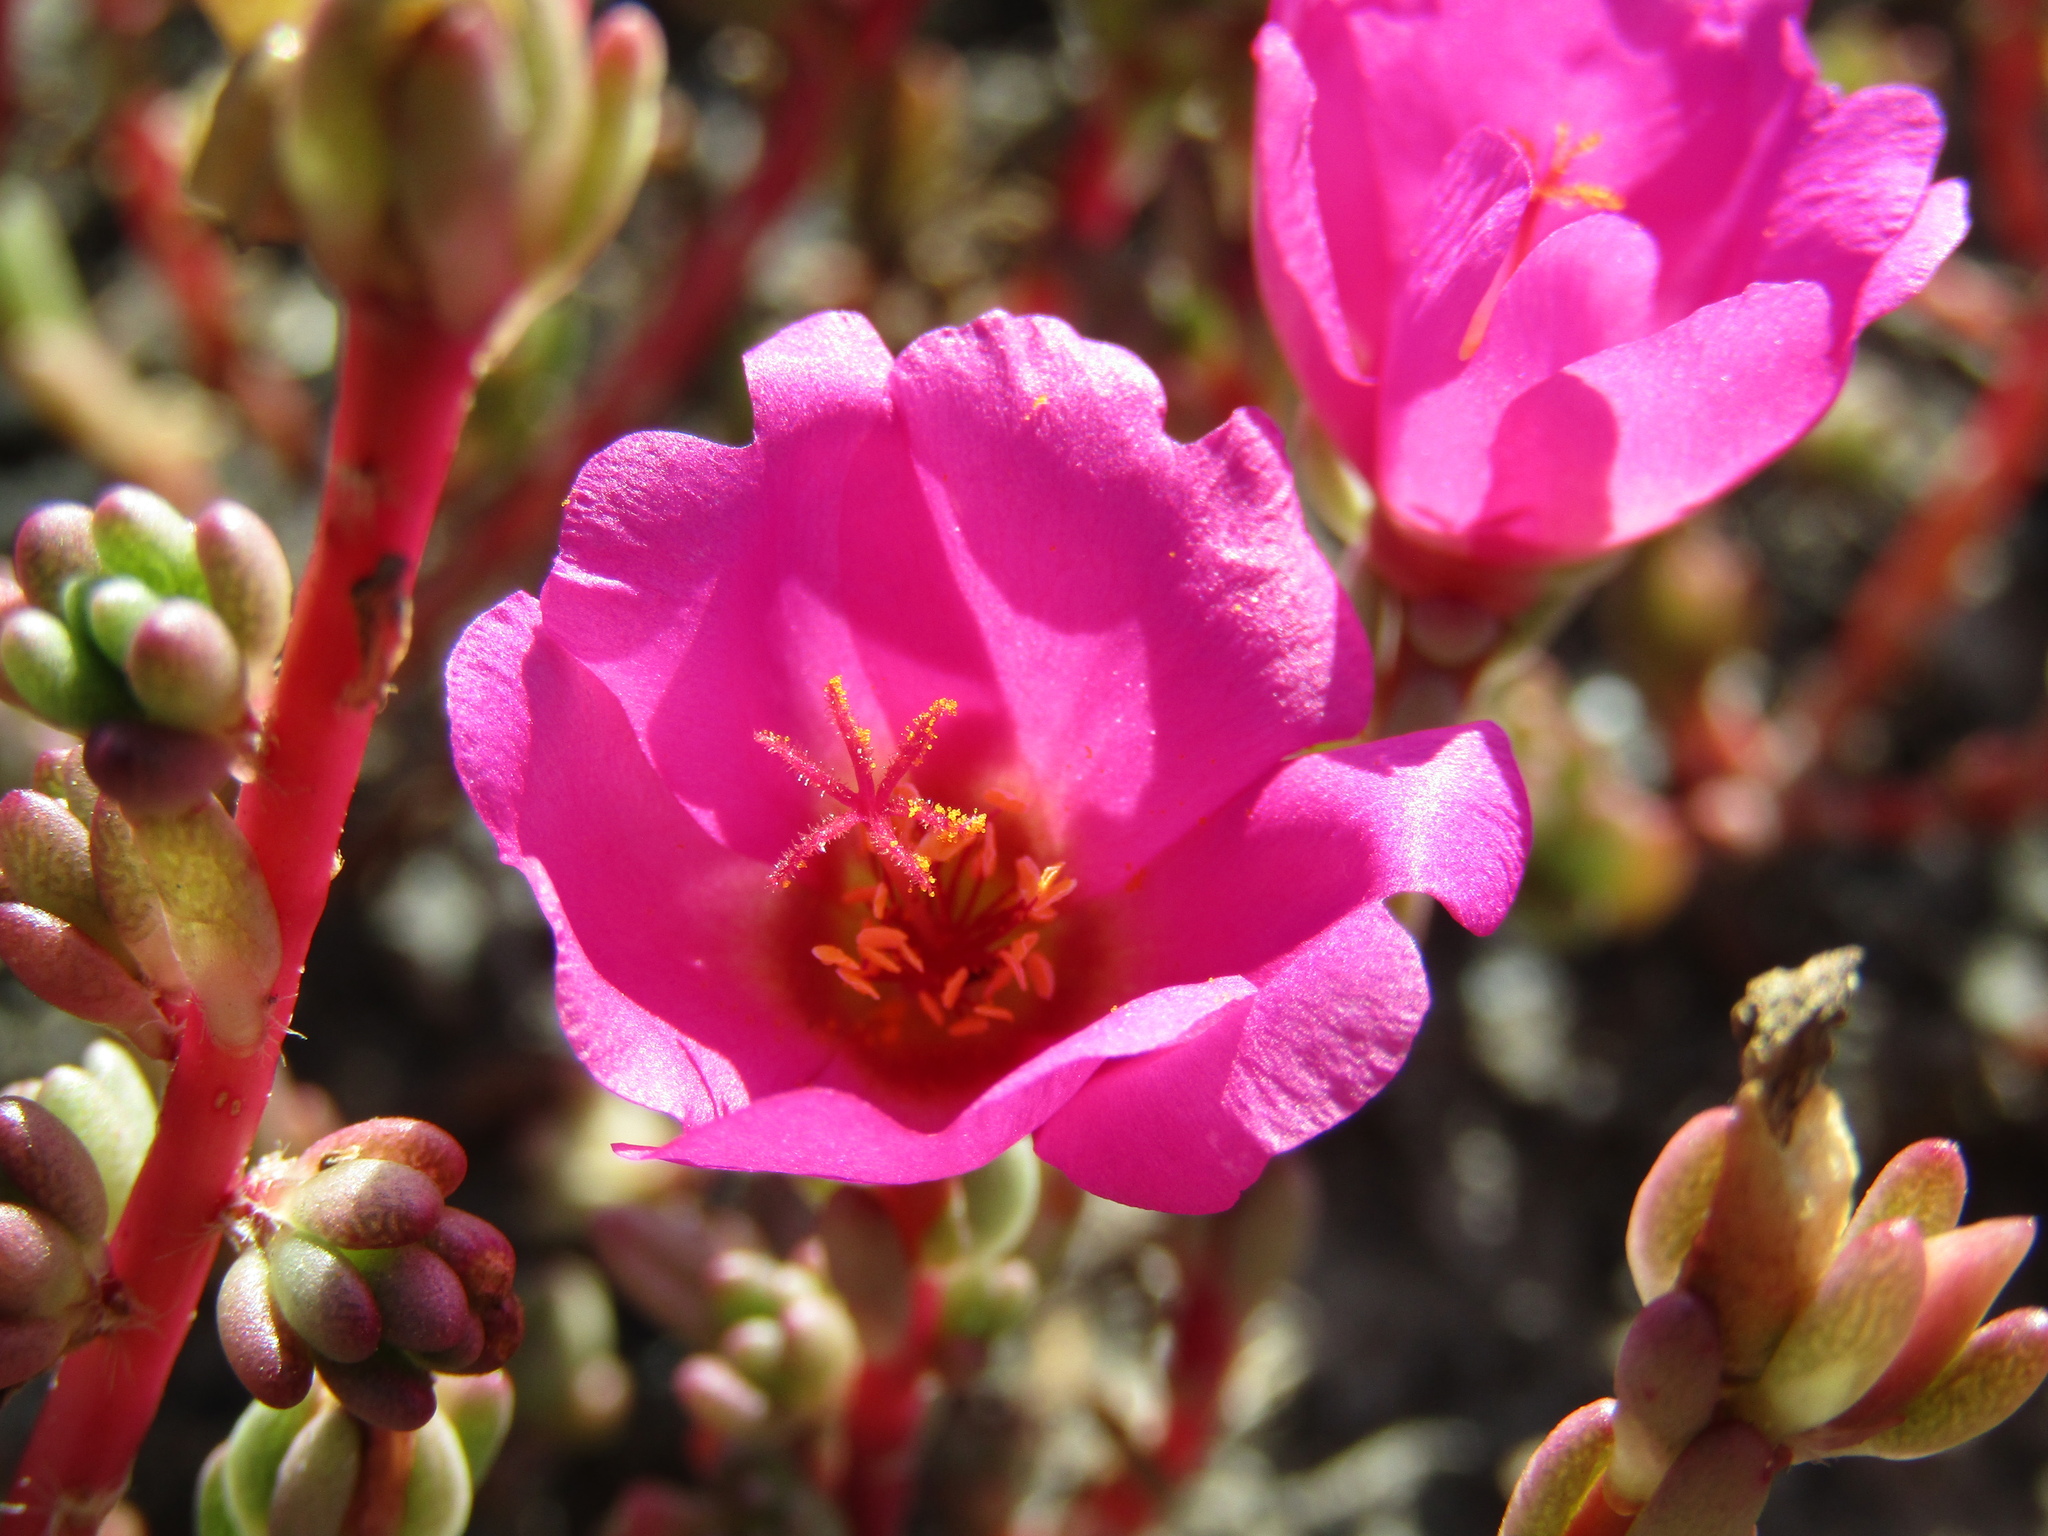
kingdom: Plantae
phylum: Tracheophyta
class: Magnoliopsida
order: Caryophyllales
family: Portulacaceae
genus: Portulaca
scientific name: Portulaca gilliesii
